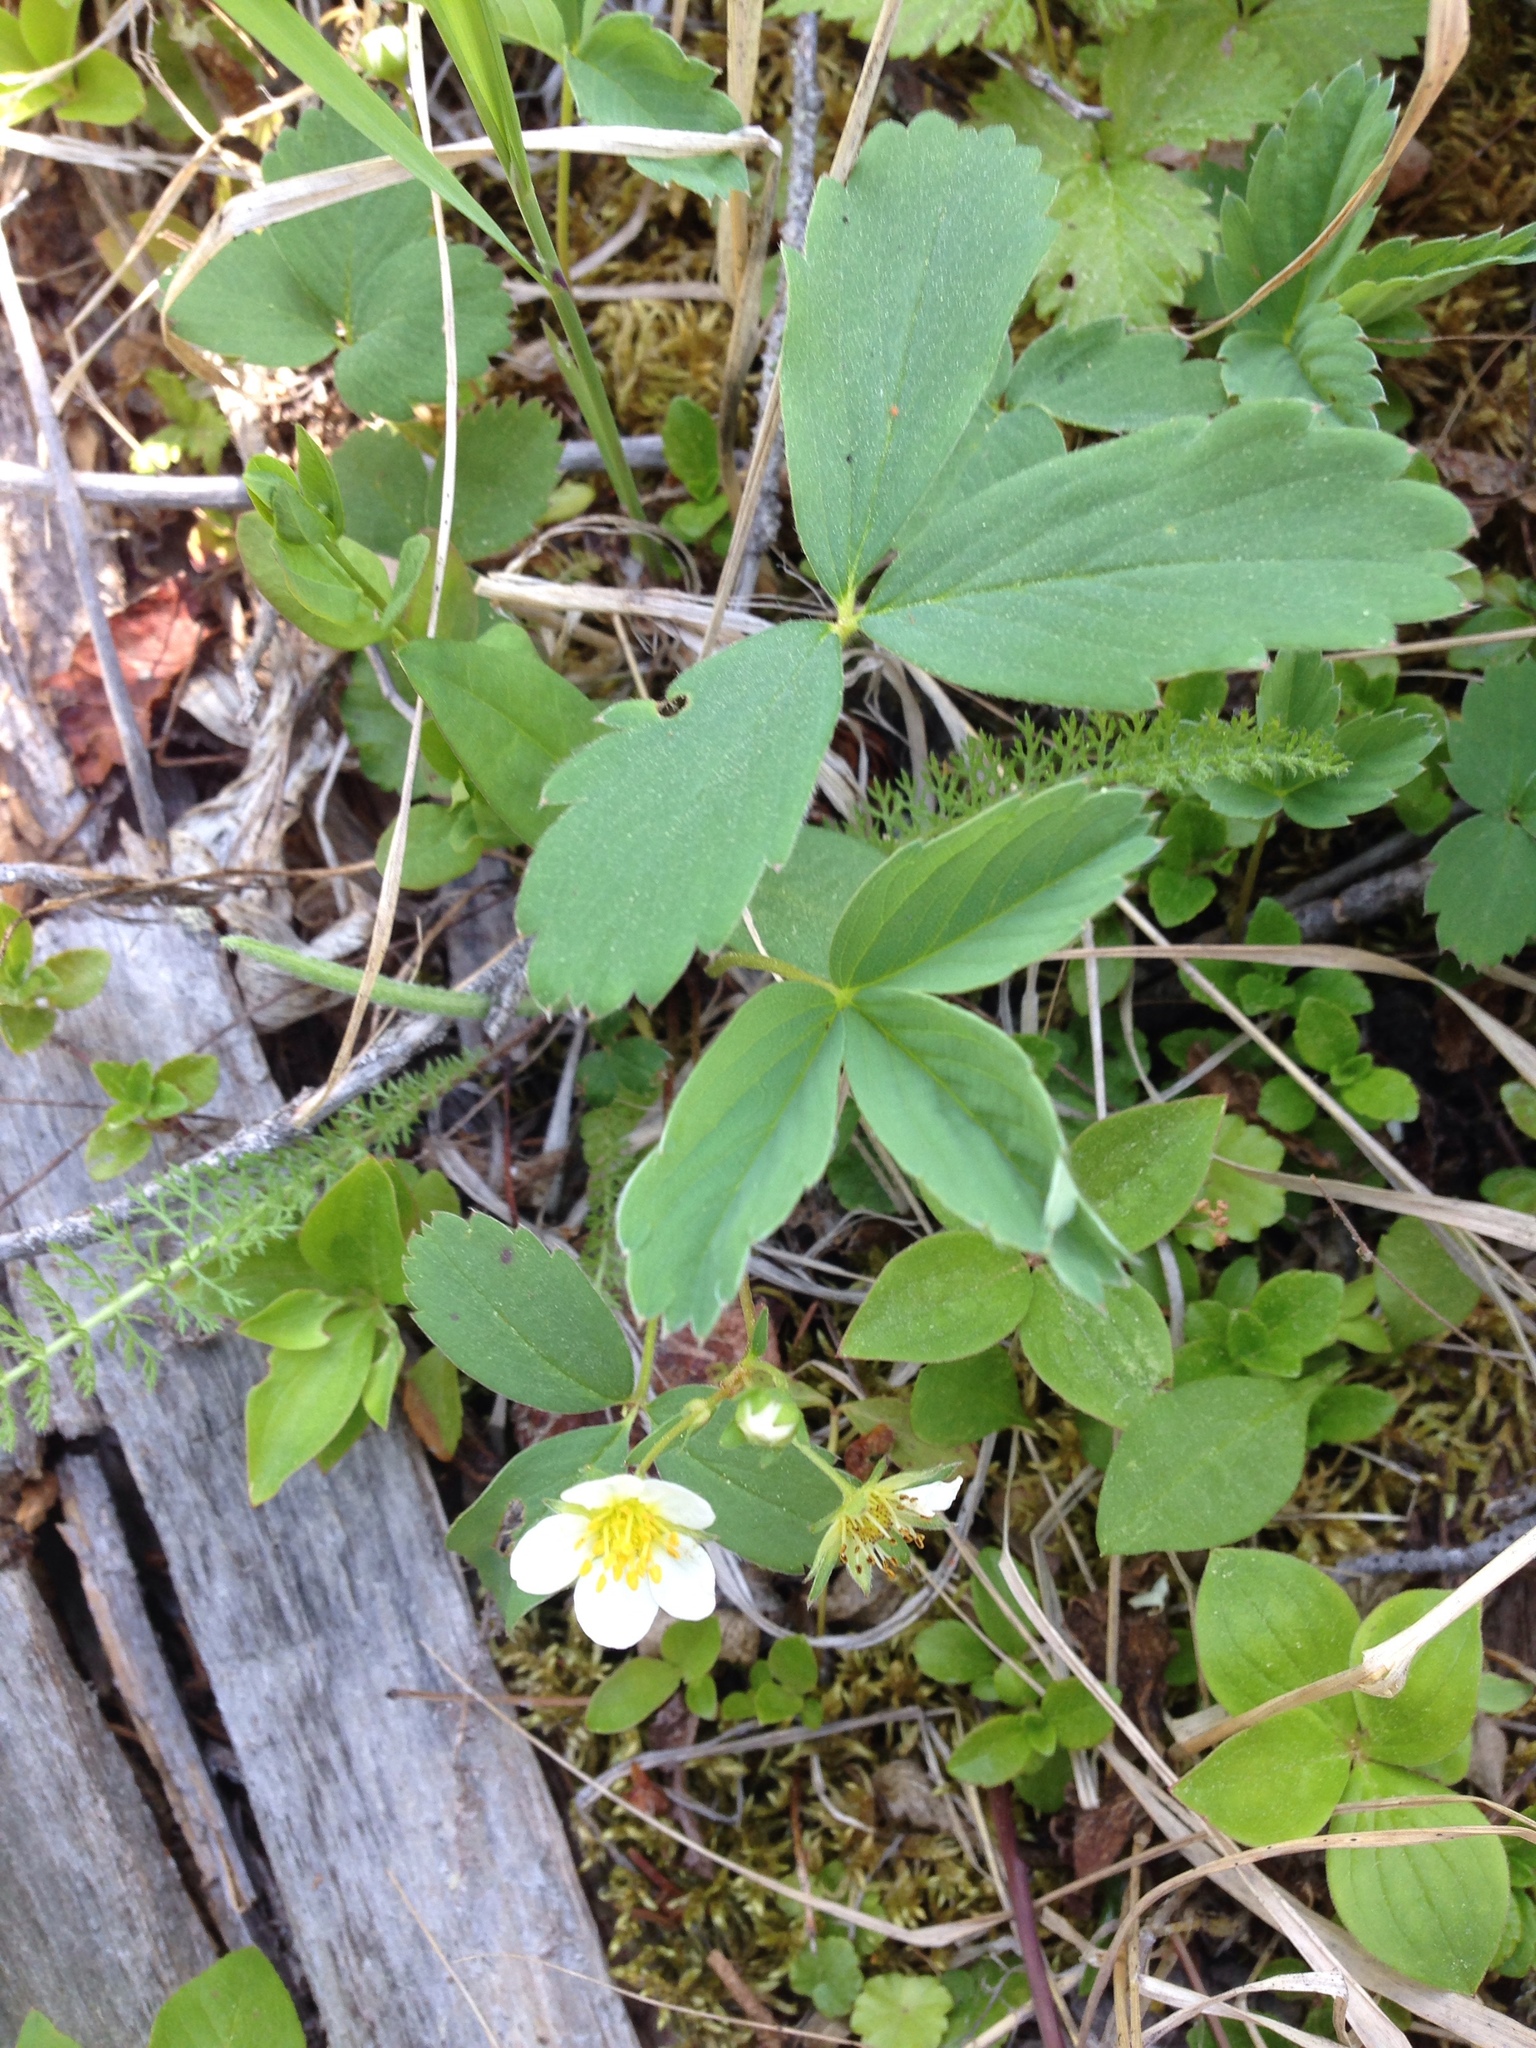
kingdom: Plantae
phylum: Tracheophyta
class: Magnoliopsida
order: Rosales
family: Rosaceae
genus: Fragaria
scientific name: Fragaria virginiana
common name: Thickleaved wild strawberry
